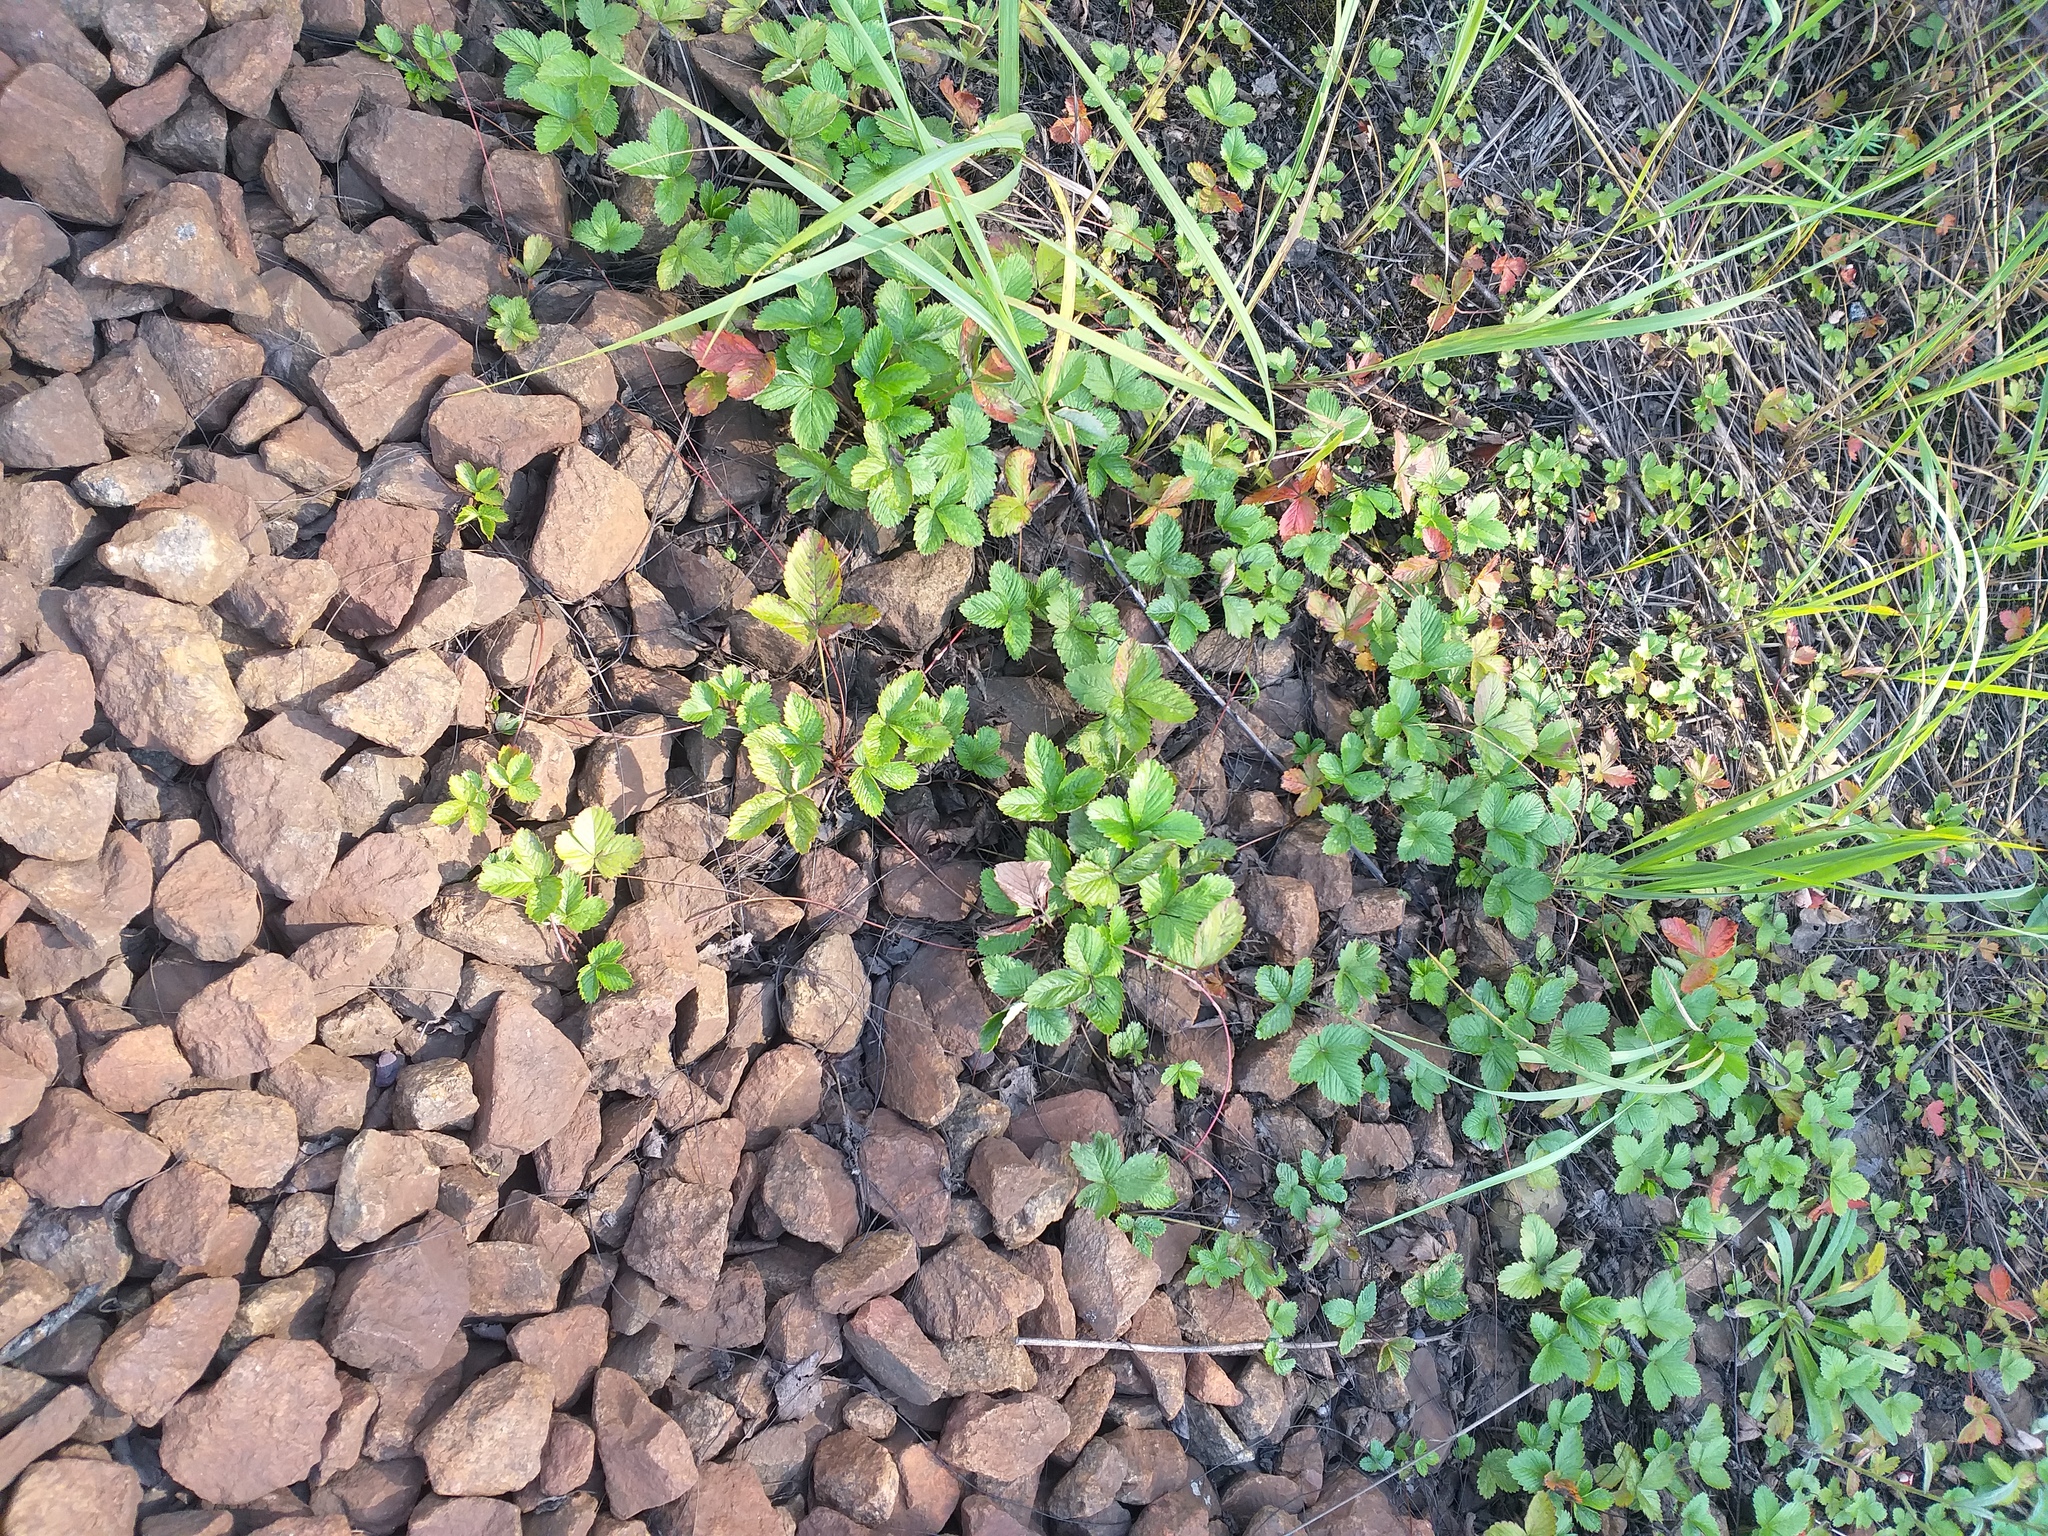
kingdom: Plantae
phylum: Tracheophyta
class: Magnoliopsida
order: Rosales
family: Rosaceae
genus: Fragaria
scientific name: Fragaria vesca
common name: Wild strawberry
